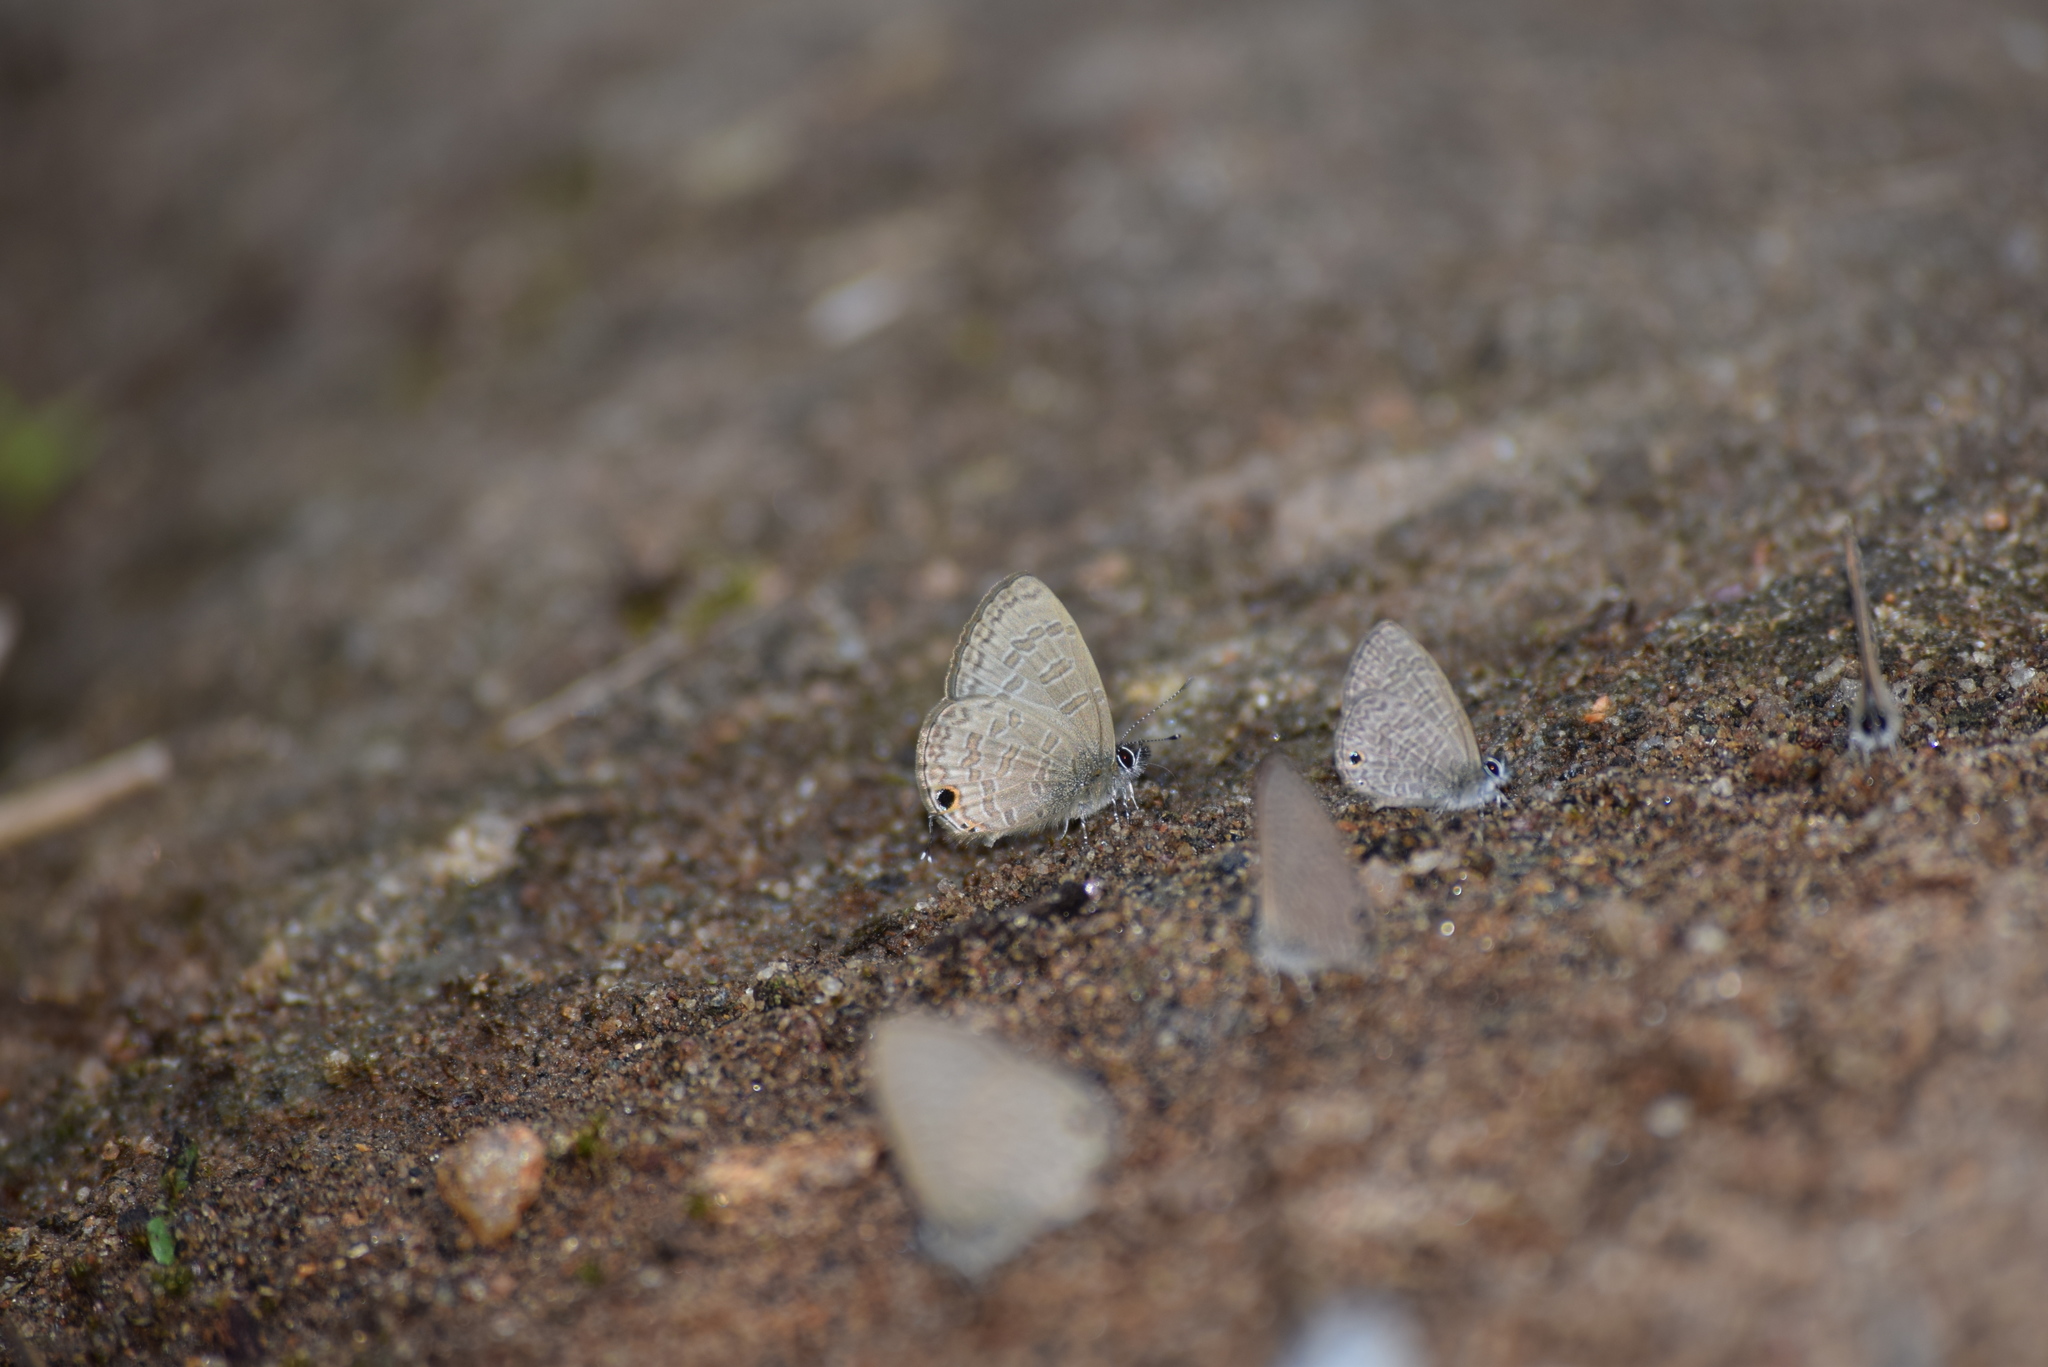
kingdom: Animalia
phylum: Arthropoda
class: Insecta
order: Lepidoptera
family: Lycaenidae
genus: Prosotas
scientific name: Prosotas nora
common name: Common line blue
